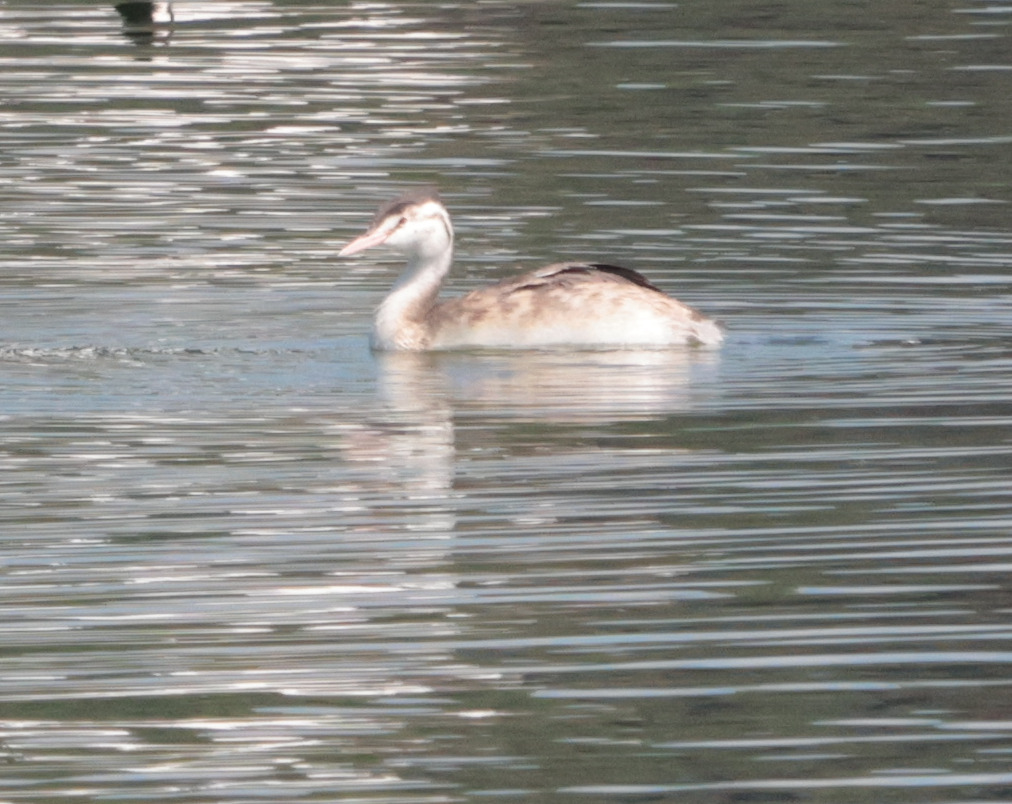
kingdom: Animalia
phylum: Chordata
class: Aves
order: Podicipediformes
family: Podicipedidae
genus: Podiceps
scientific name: Podiceps cristatus
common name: Great crested grebe
